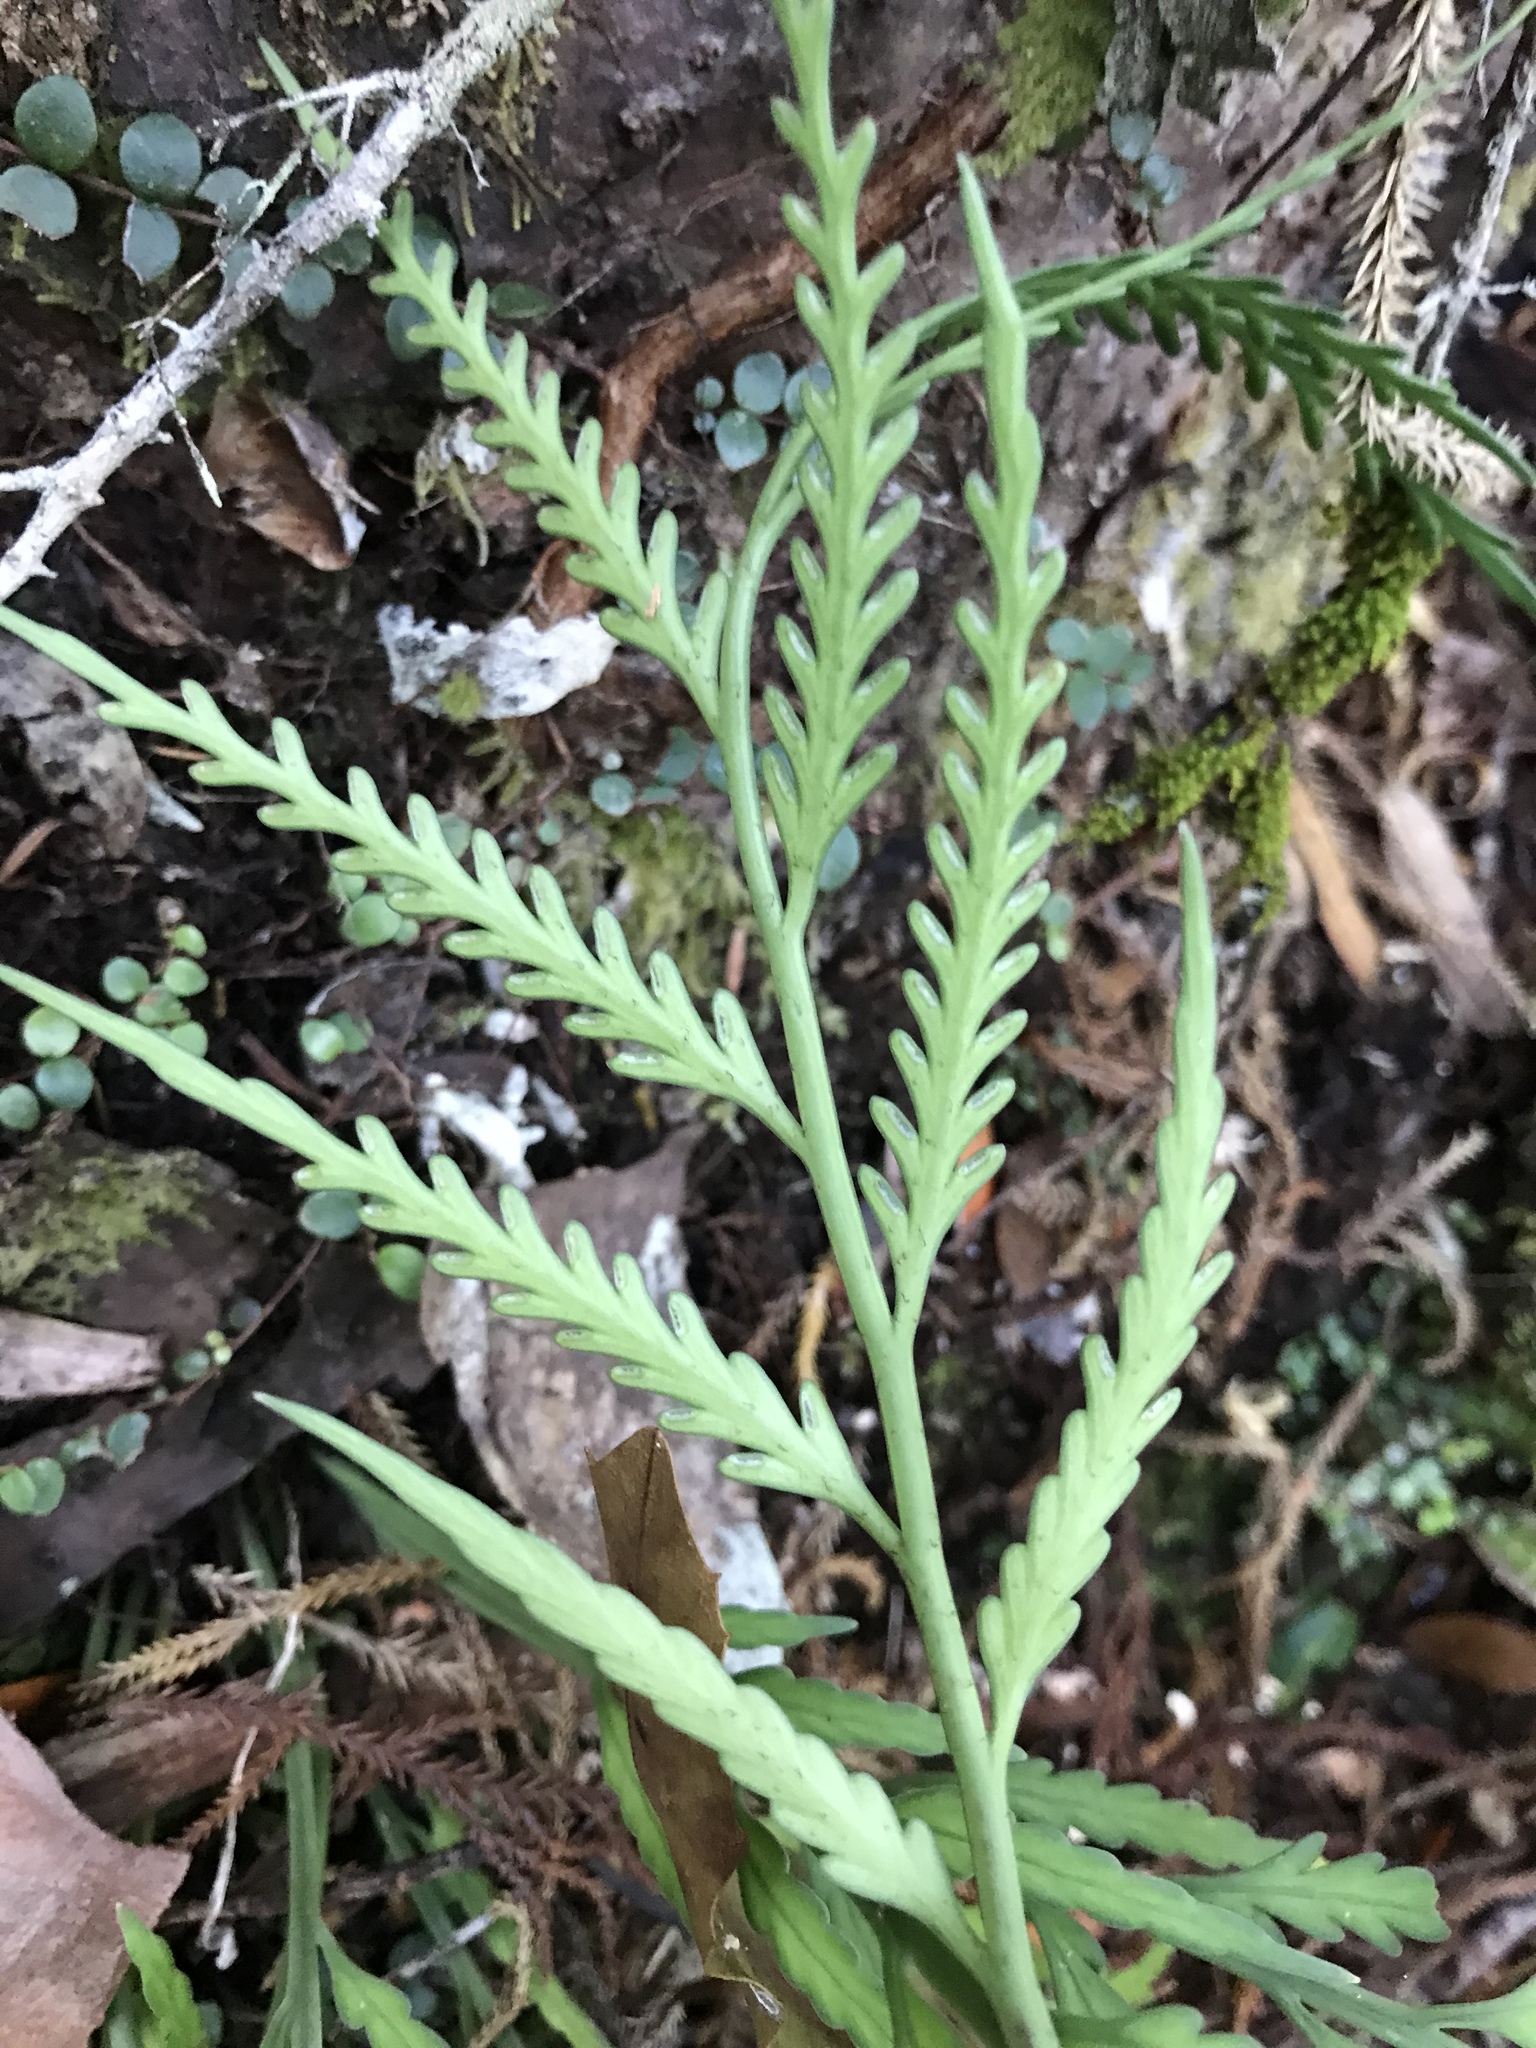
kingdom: Plantae
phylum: Tracheophyta
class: Polypodiopsida
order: Polypodiales
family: Aspleniaceae
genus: Asplenium
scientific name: Asplenium flaccidum
